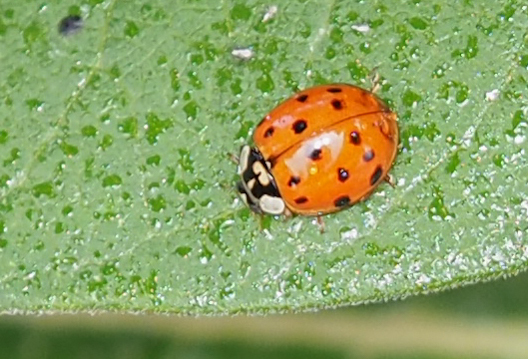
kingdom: Animalia
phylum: Arthropoda
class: Insecta
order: Coleoptera
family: Coccinellidae
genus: Harmonia
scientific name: Harmonia axyridis
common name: Harlequin ladybird
